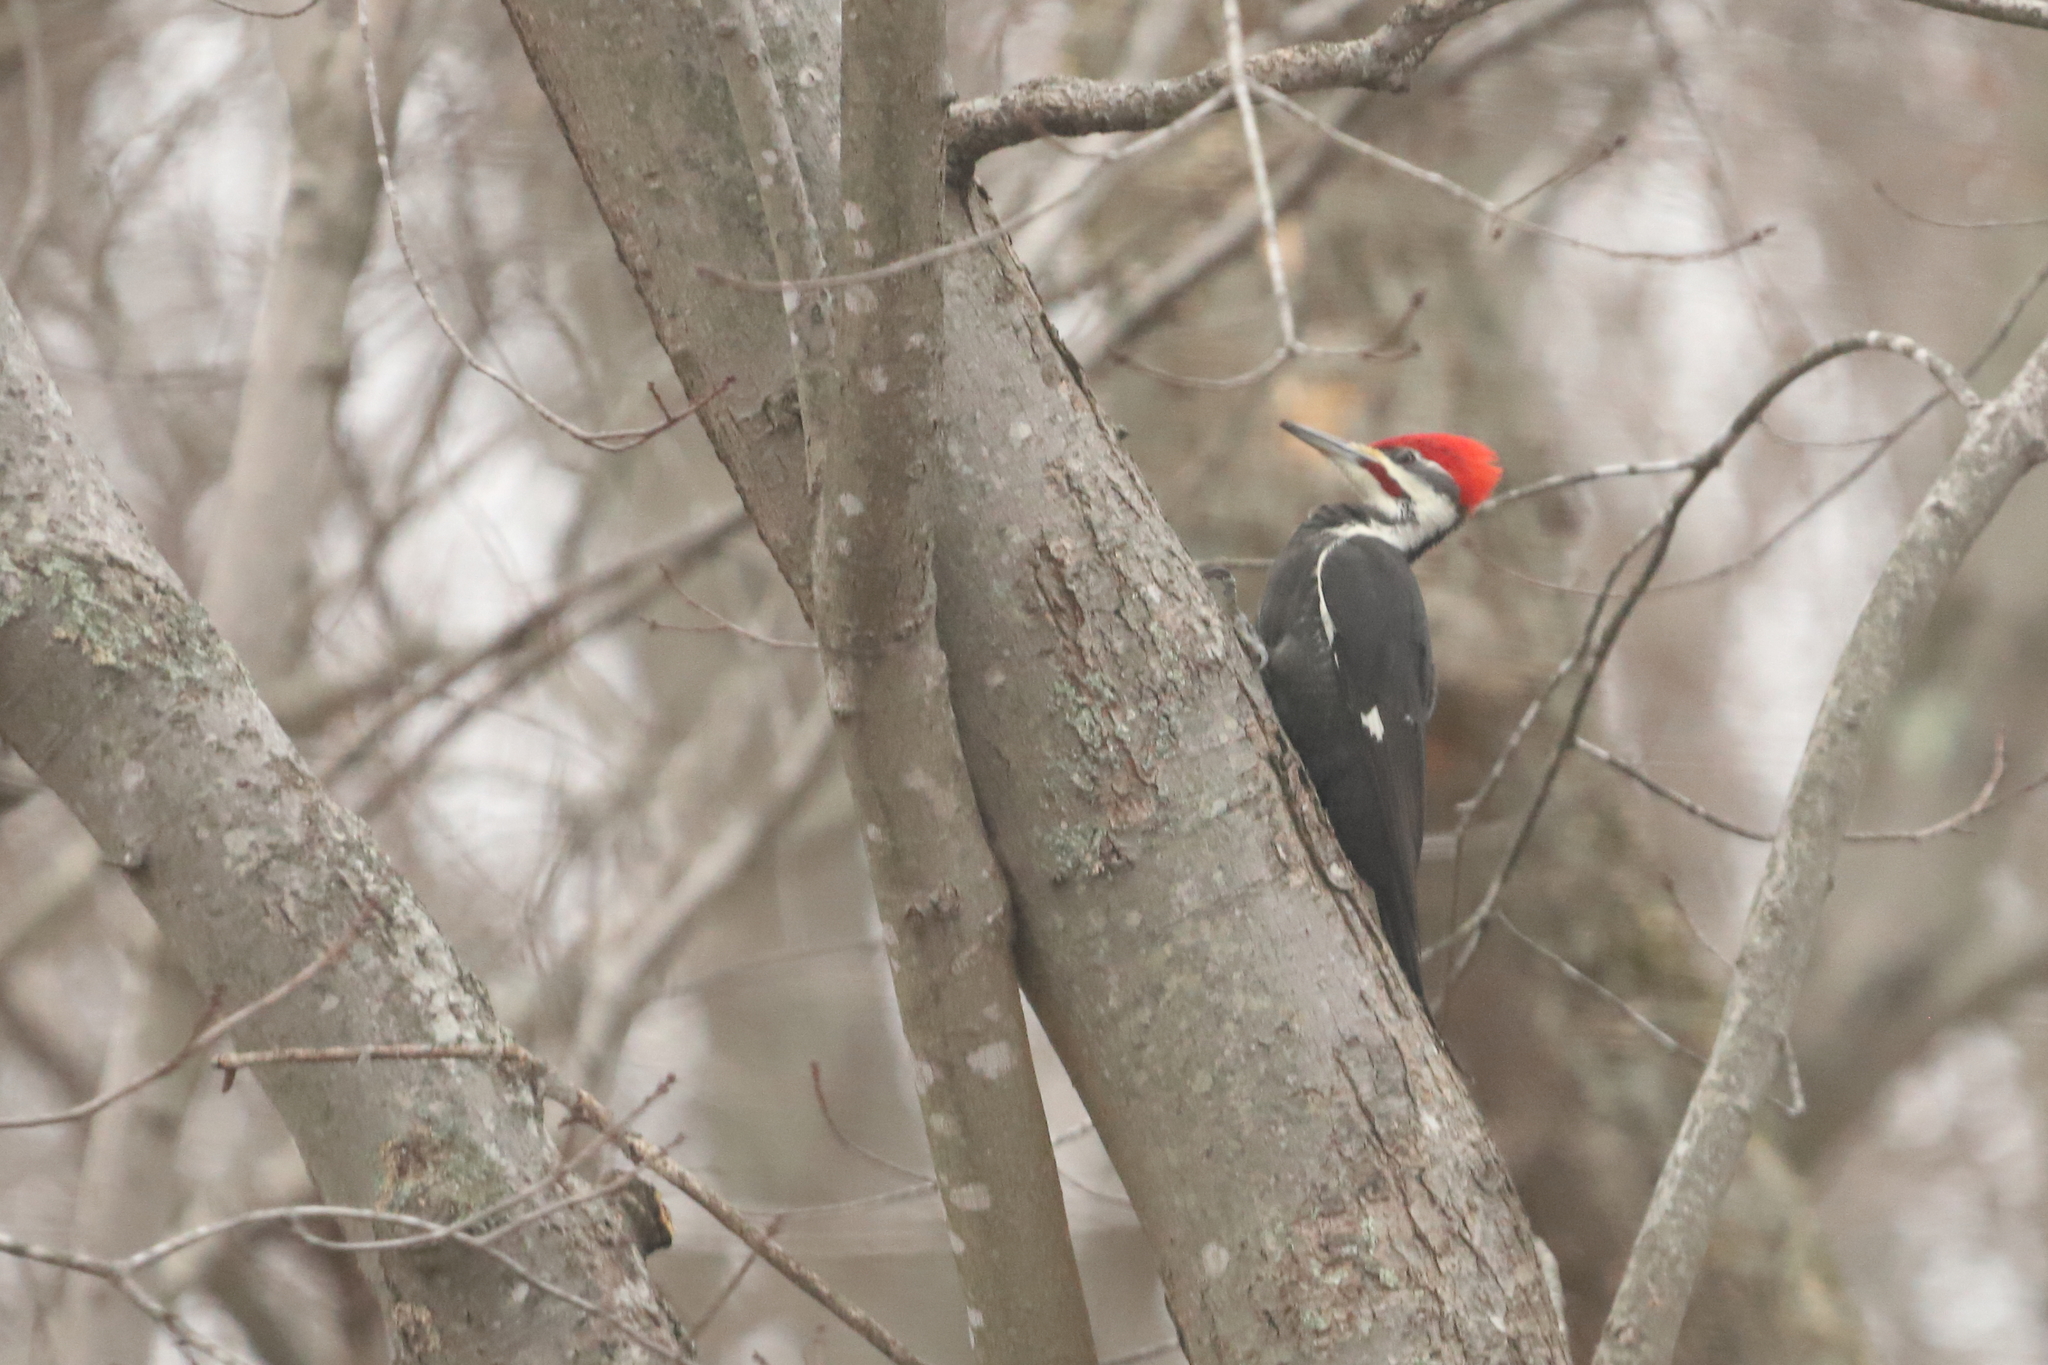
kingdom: Animalia
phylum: Chordata
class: Aves
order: Piciformes
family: Picidae
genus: Dryocopus
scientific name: Dryocopus pileatus
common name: Pileated woodpecker
